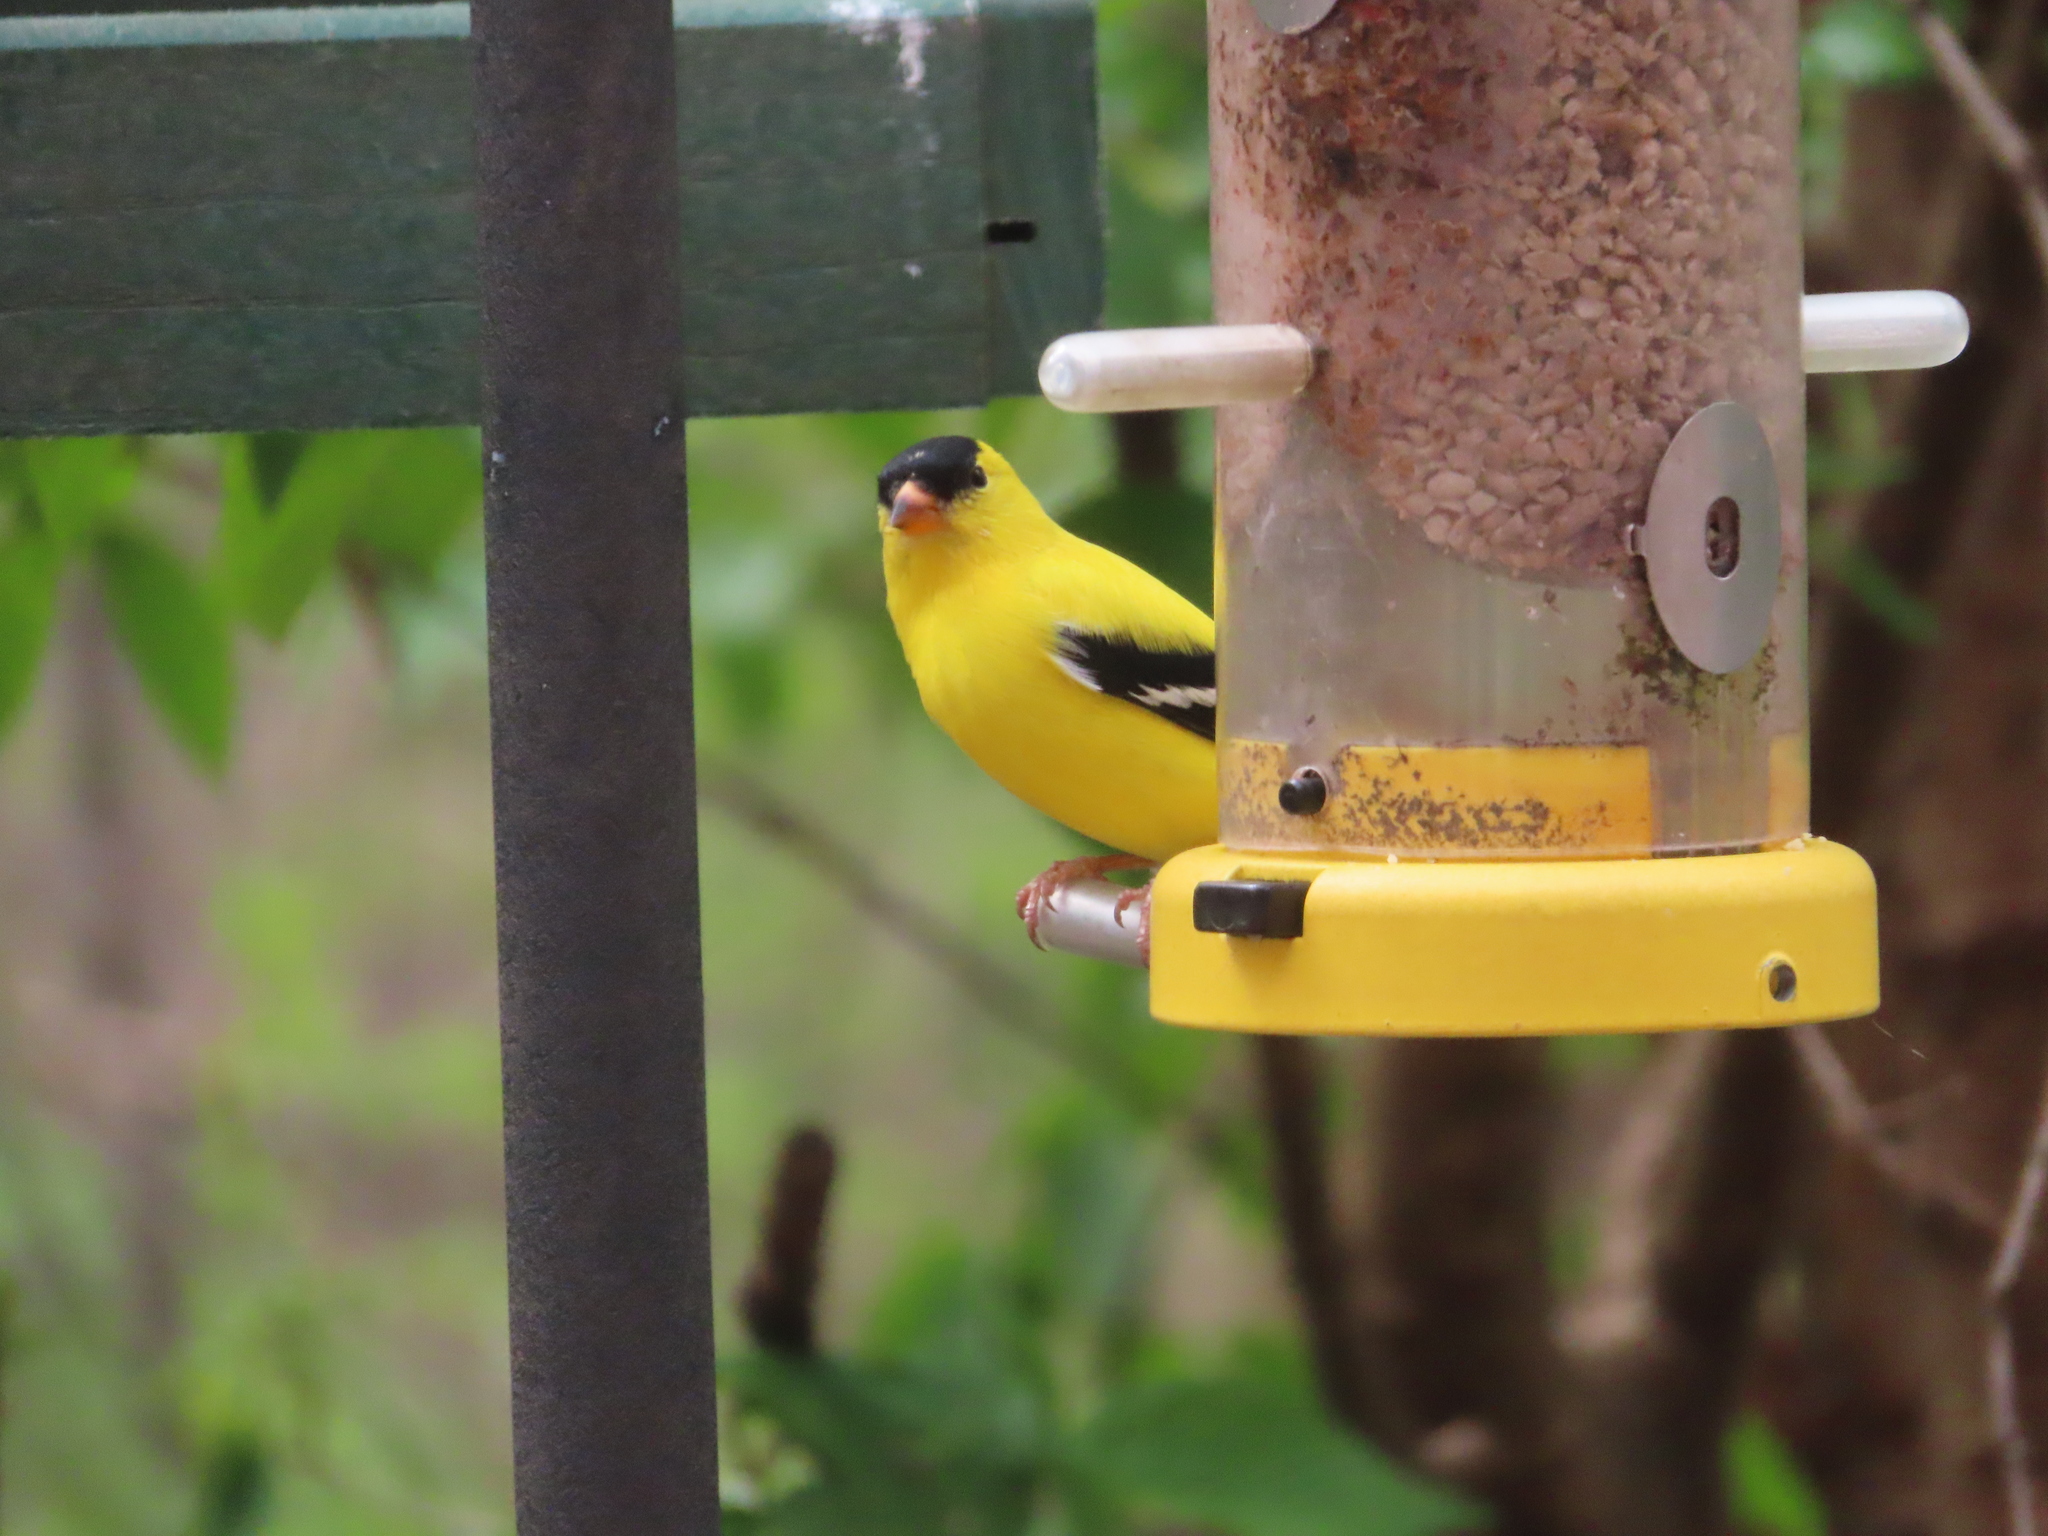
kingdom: Animalia
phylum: Chordata
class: Aves
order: Passeriformes
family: Fringillidae
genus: Spinus
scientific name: Spinus tristis
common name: American goldfinch
